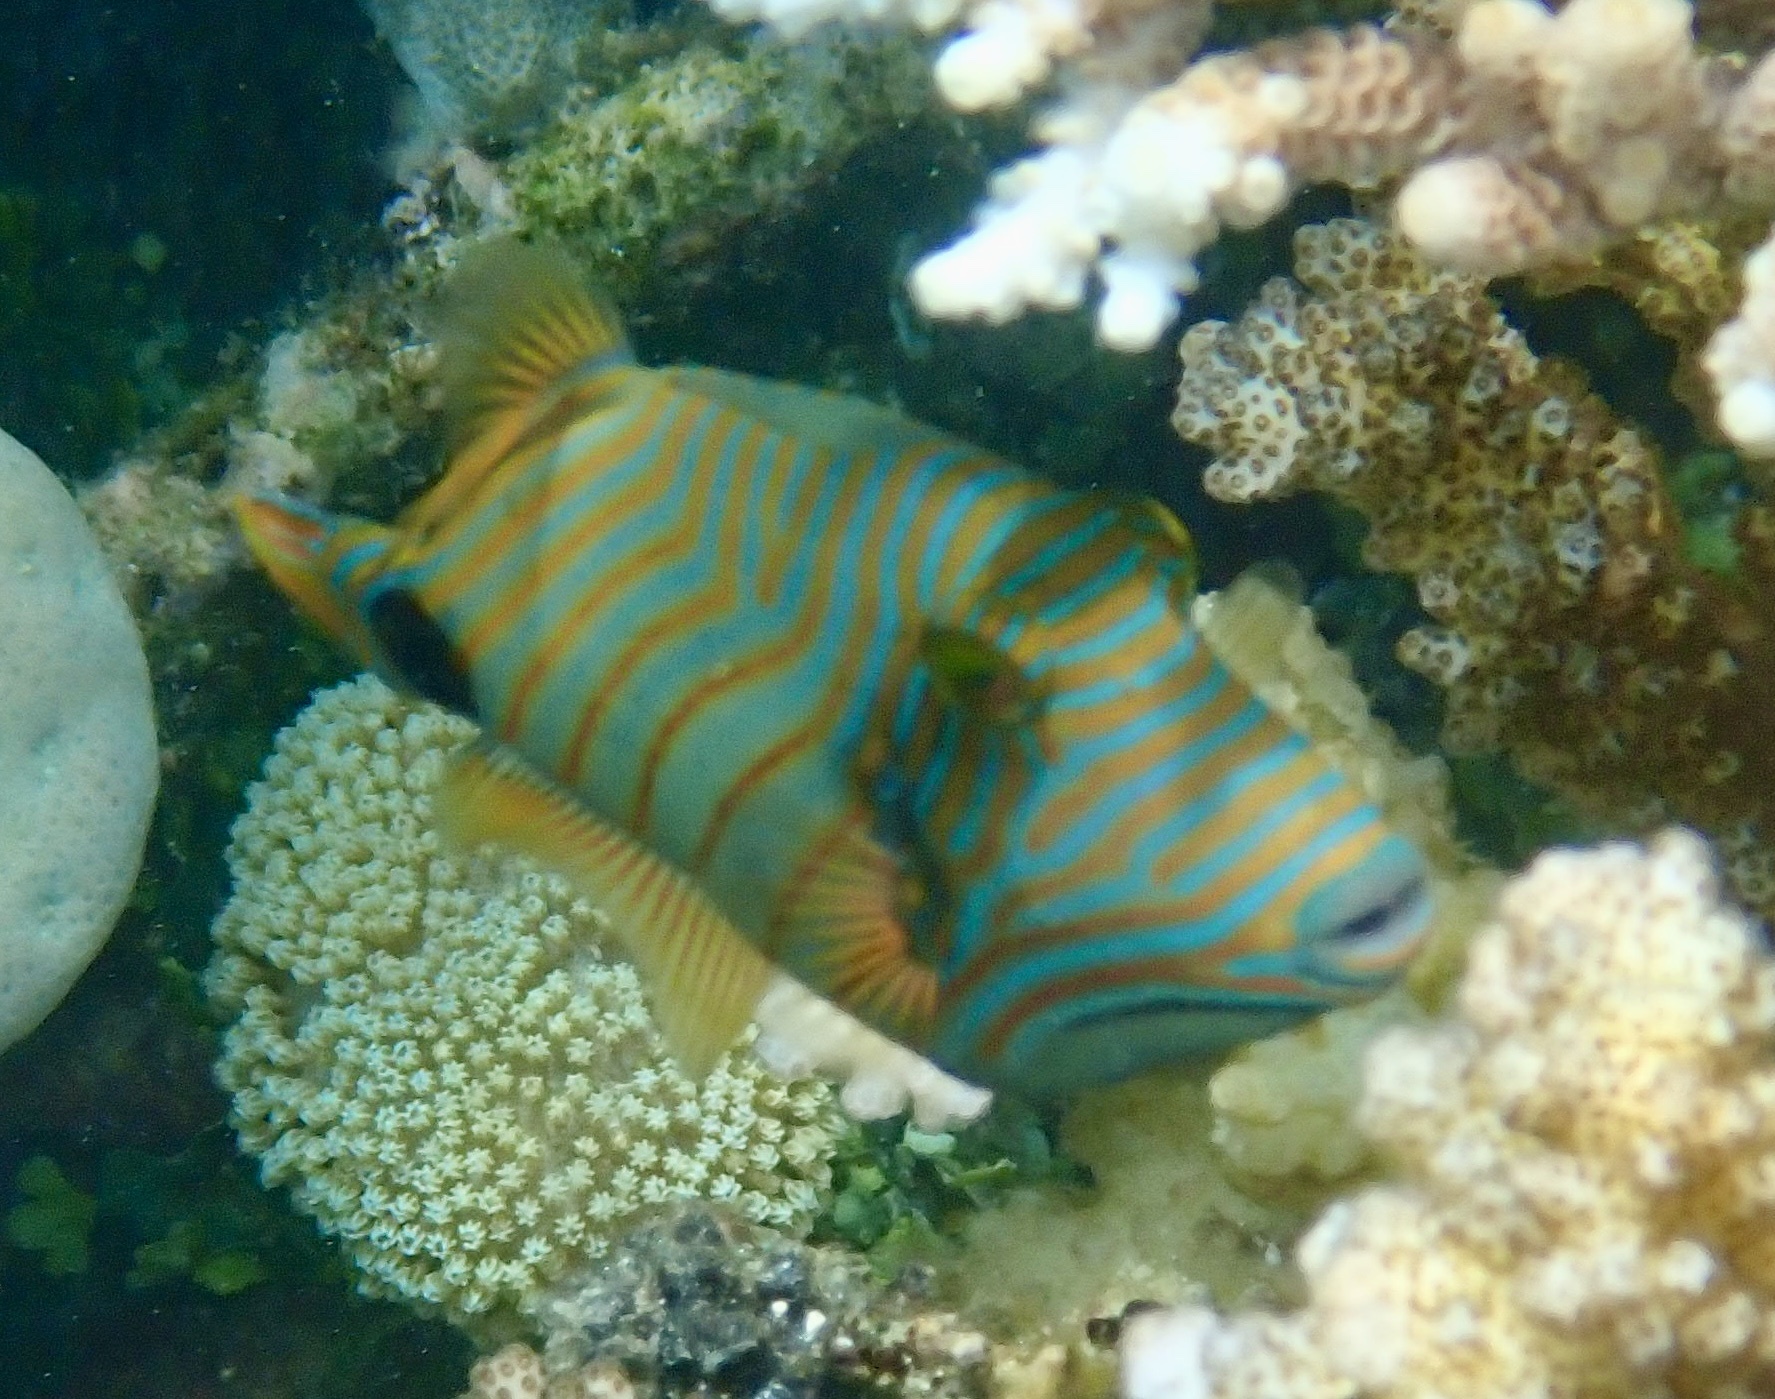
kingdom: Animalia
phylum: Chordata
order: Tetraodontiformes
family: Balistidae
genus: Balistapus
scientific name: Balistapus undulatus
